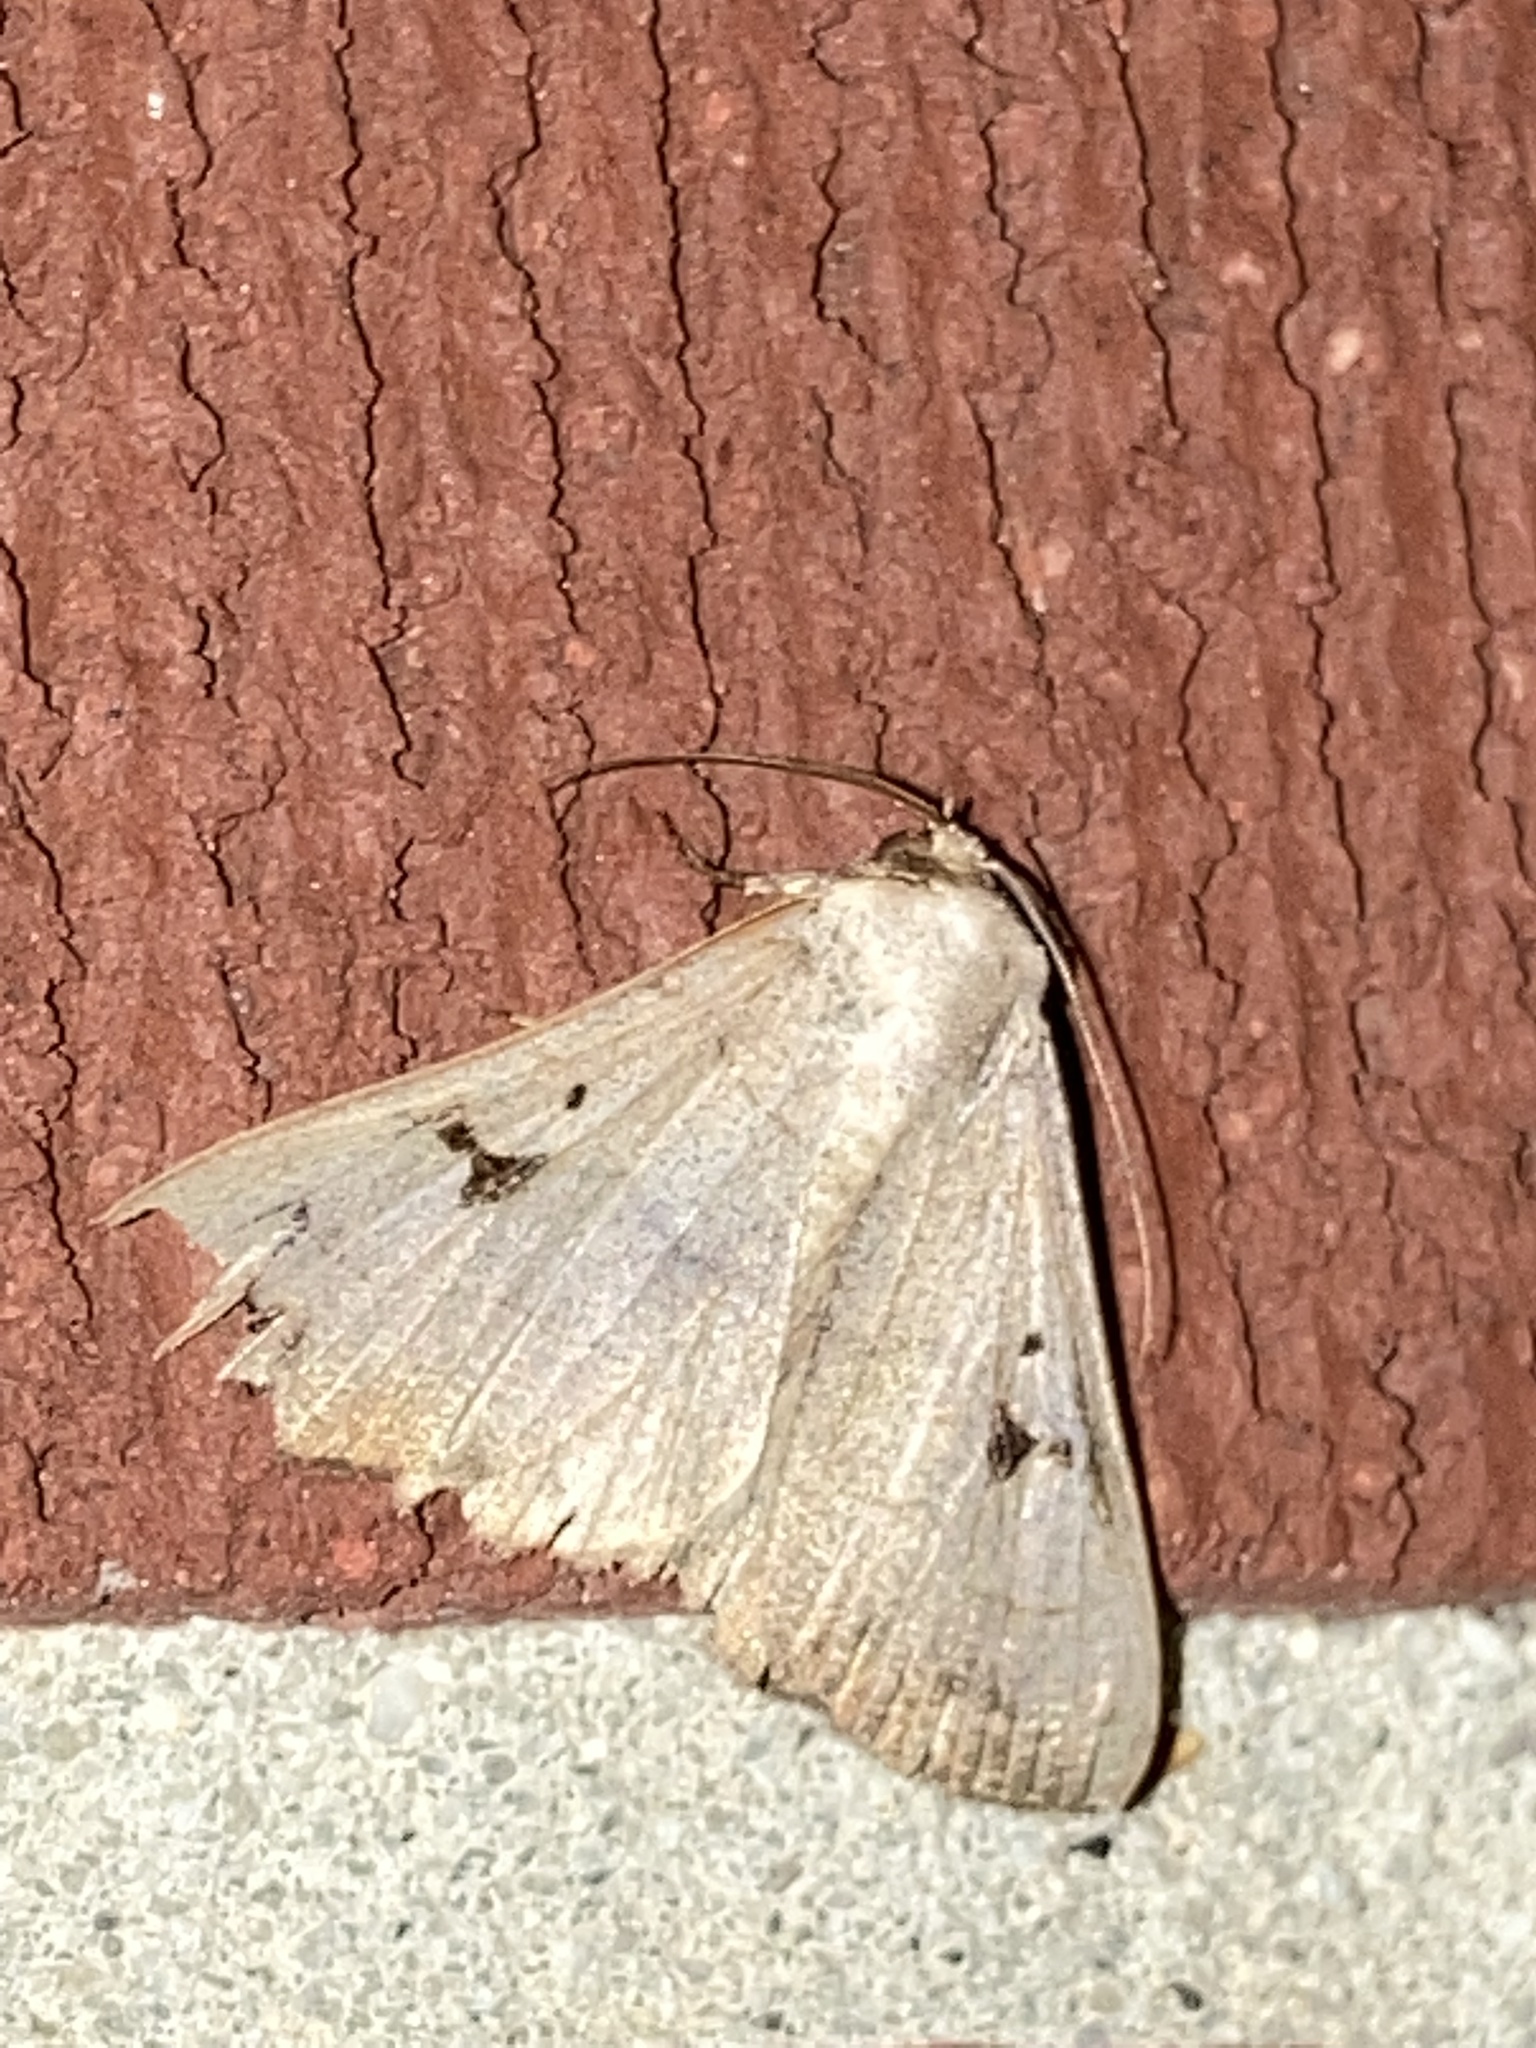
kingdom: Animalia
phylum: Arthropoda
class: Insecta
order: Lepidoptera
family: Erebidae
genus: Panopoda
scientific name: Panopoda carneicosta
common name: Brown panopoda moth
